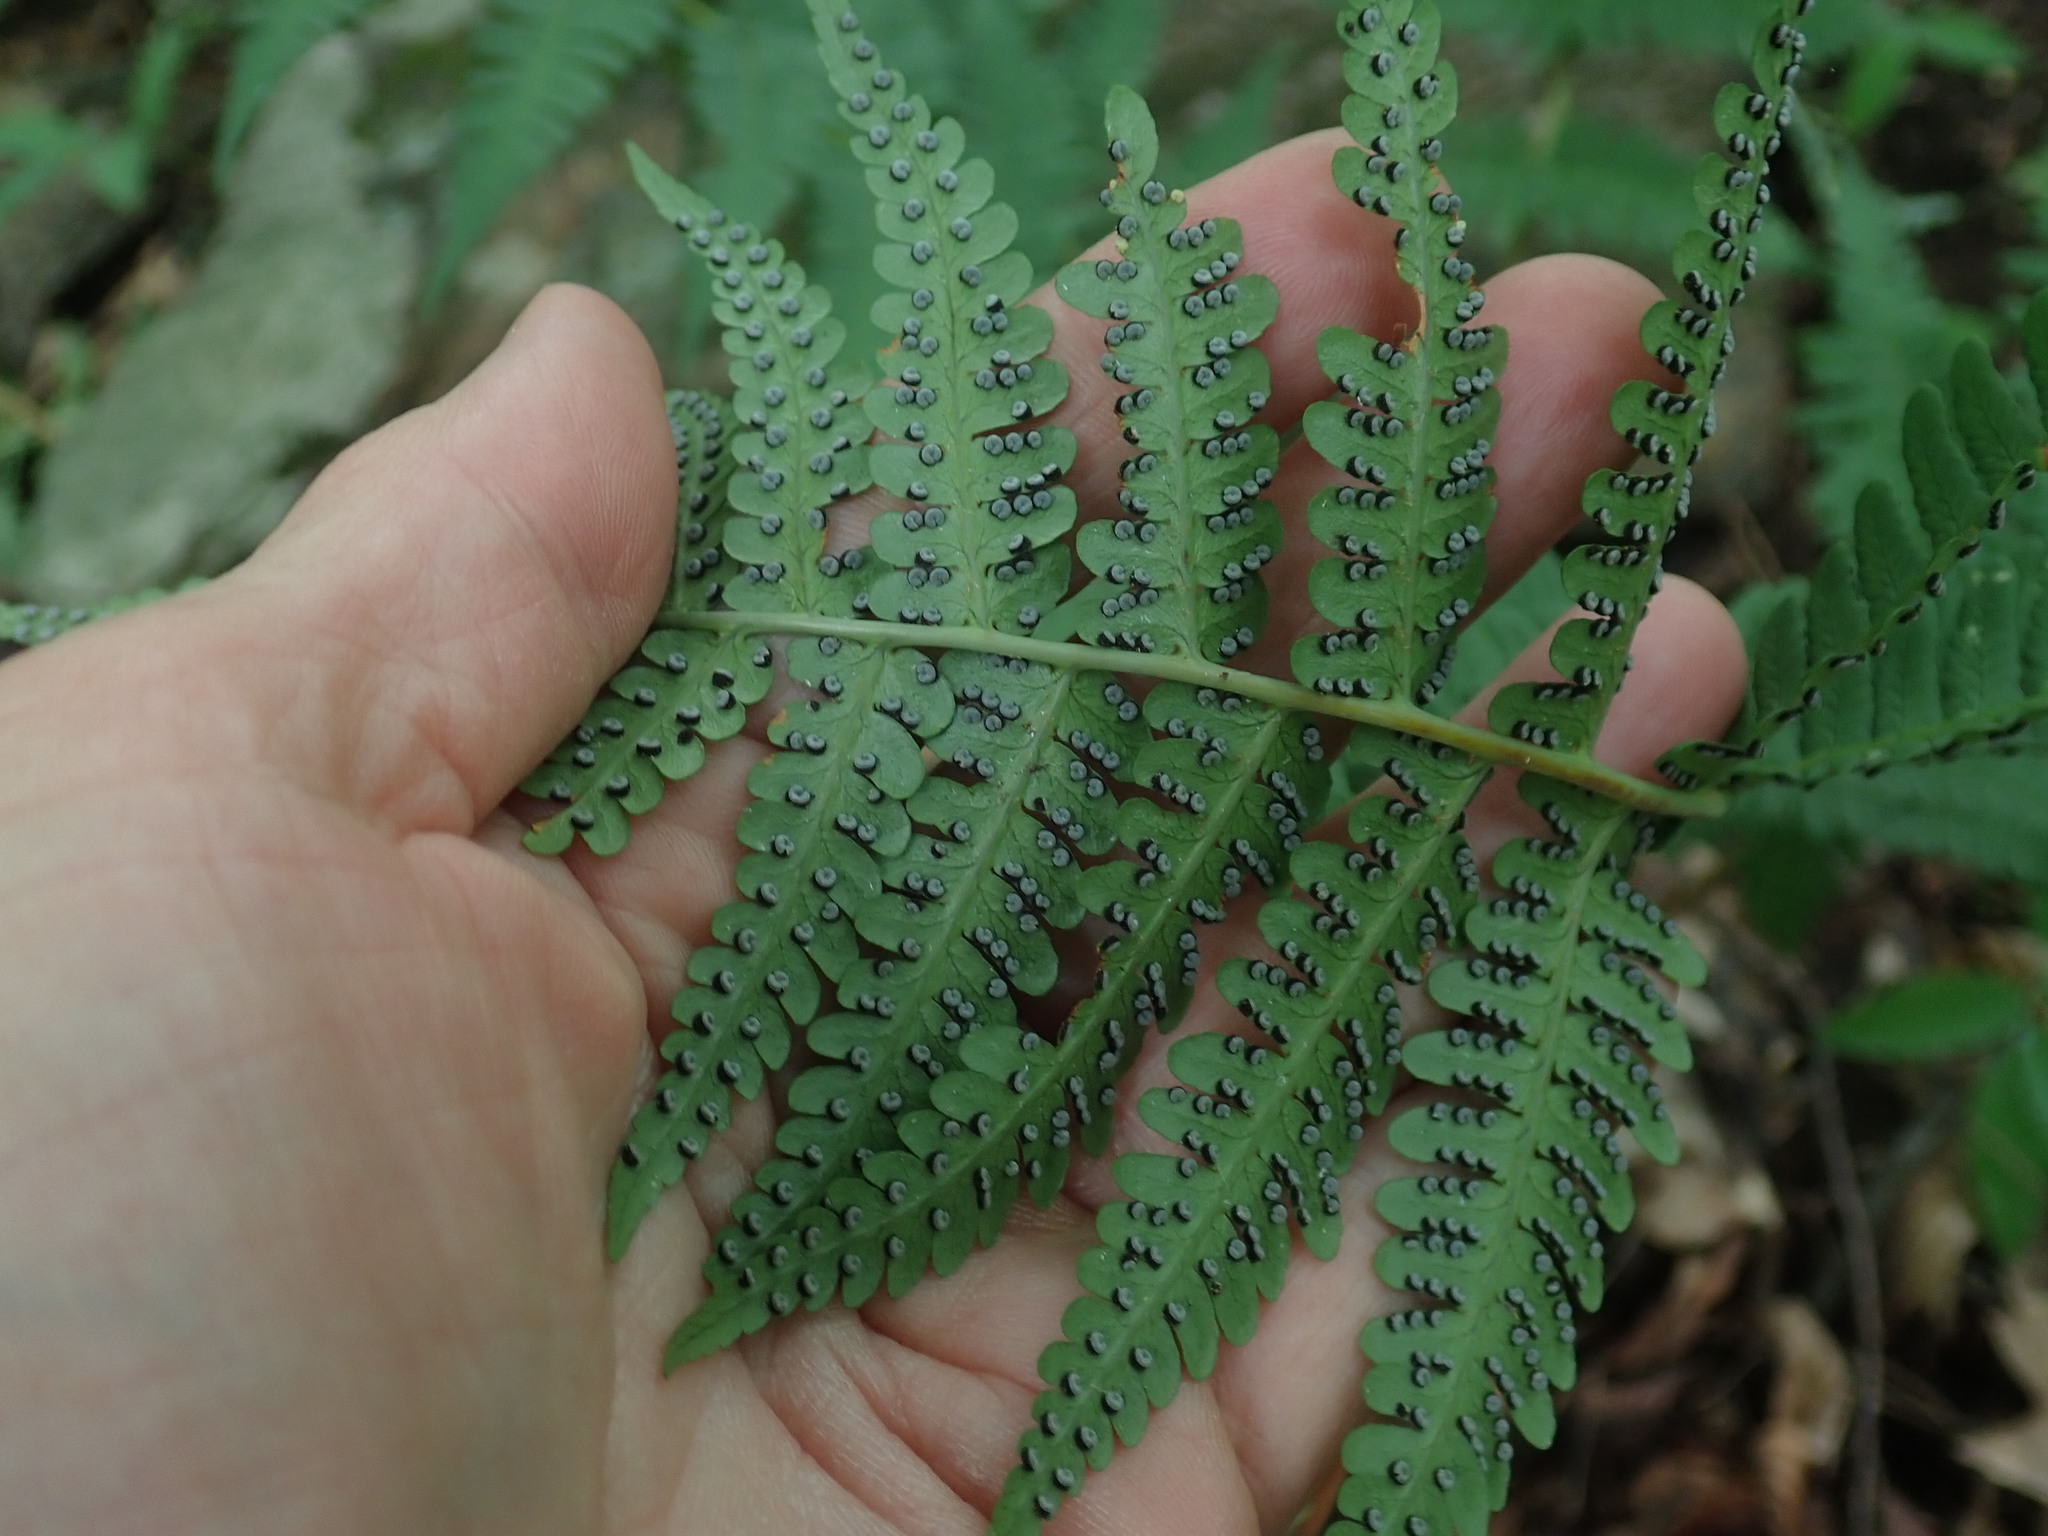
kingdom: Plantae
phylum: Tracheophyta
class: Polypodiopsida
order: Polypodiales
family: Dryopteridaceae
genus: Dryopteris
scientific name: Dryopteris marginalis
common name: Marginal wood fern
